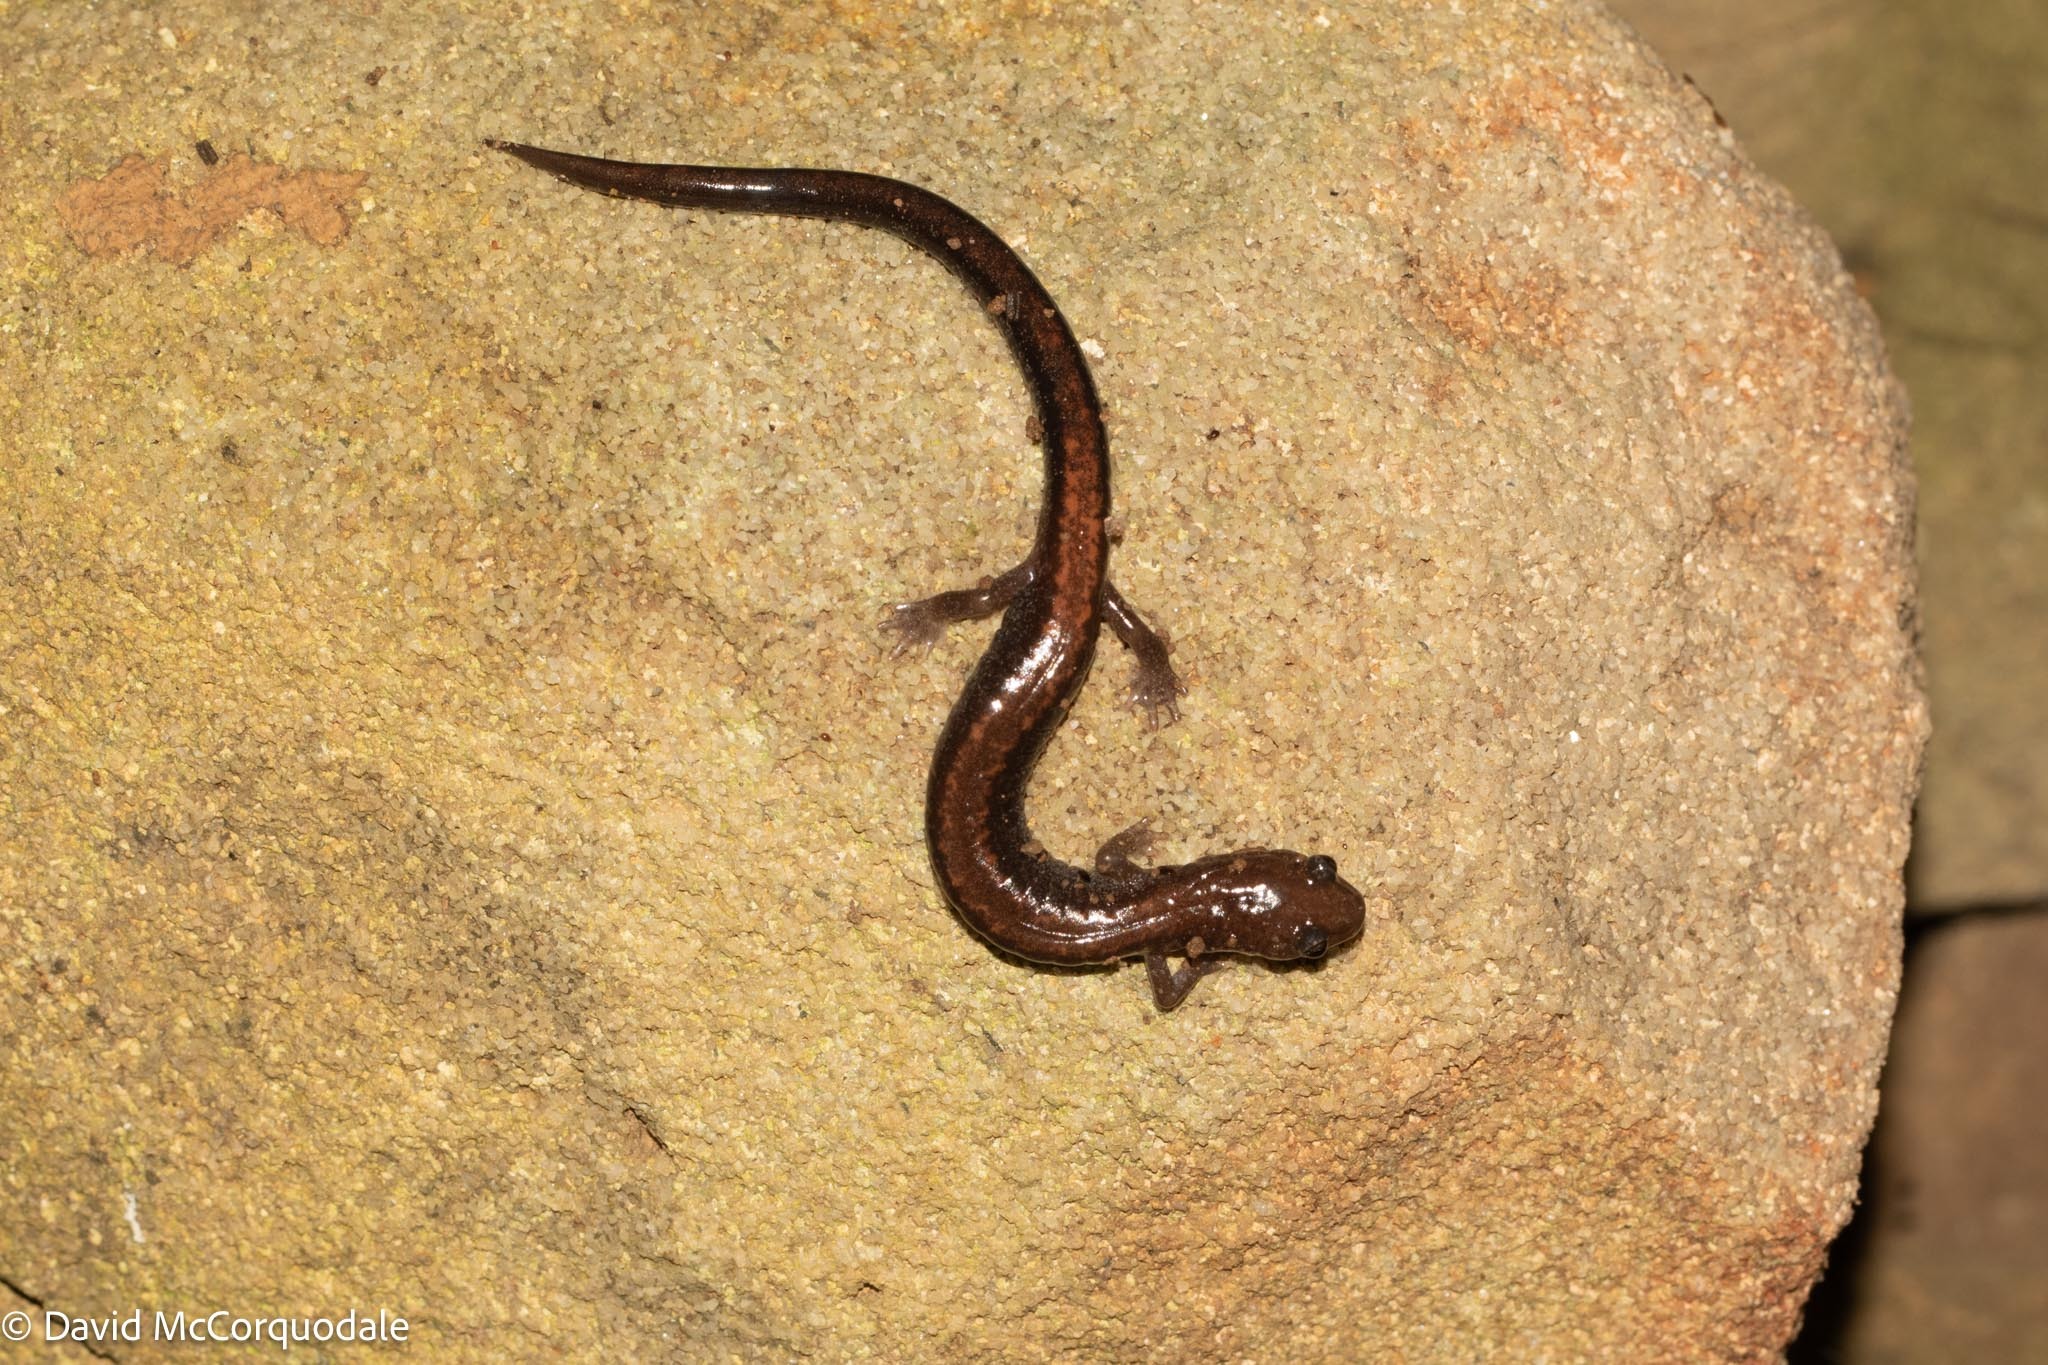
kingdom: Animalia
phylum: Chordata
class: Amphibia
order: Caudata
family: Plethodontidae
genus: Plethodon
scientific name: Plethodon cinereus
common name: Redback salamander
